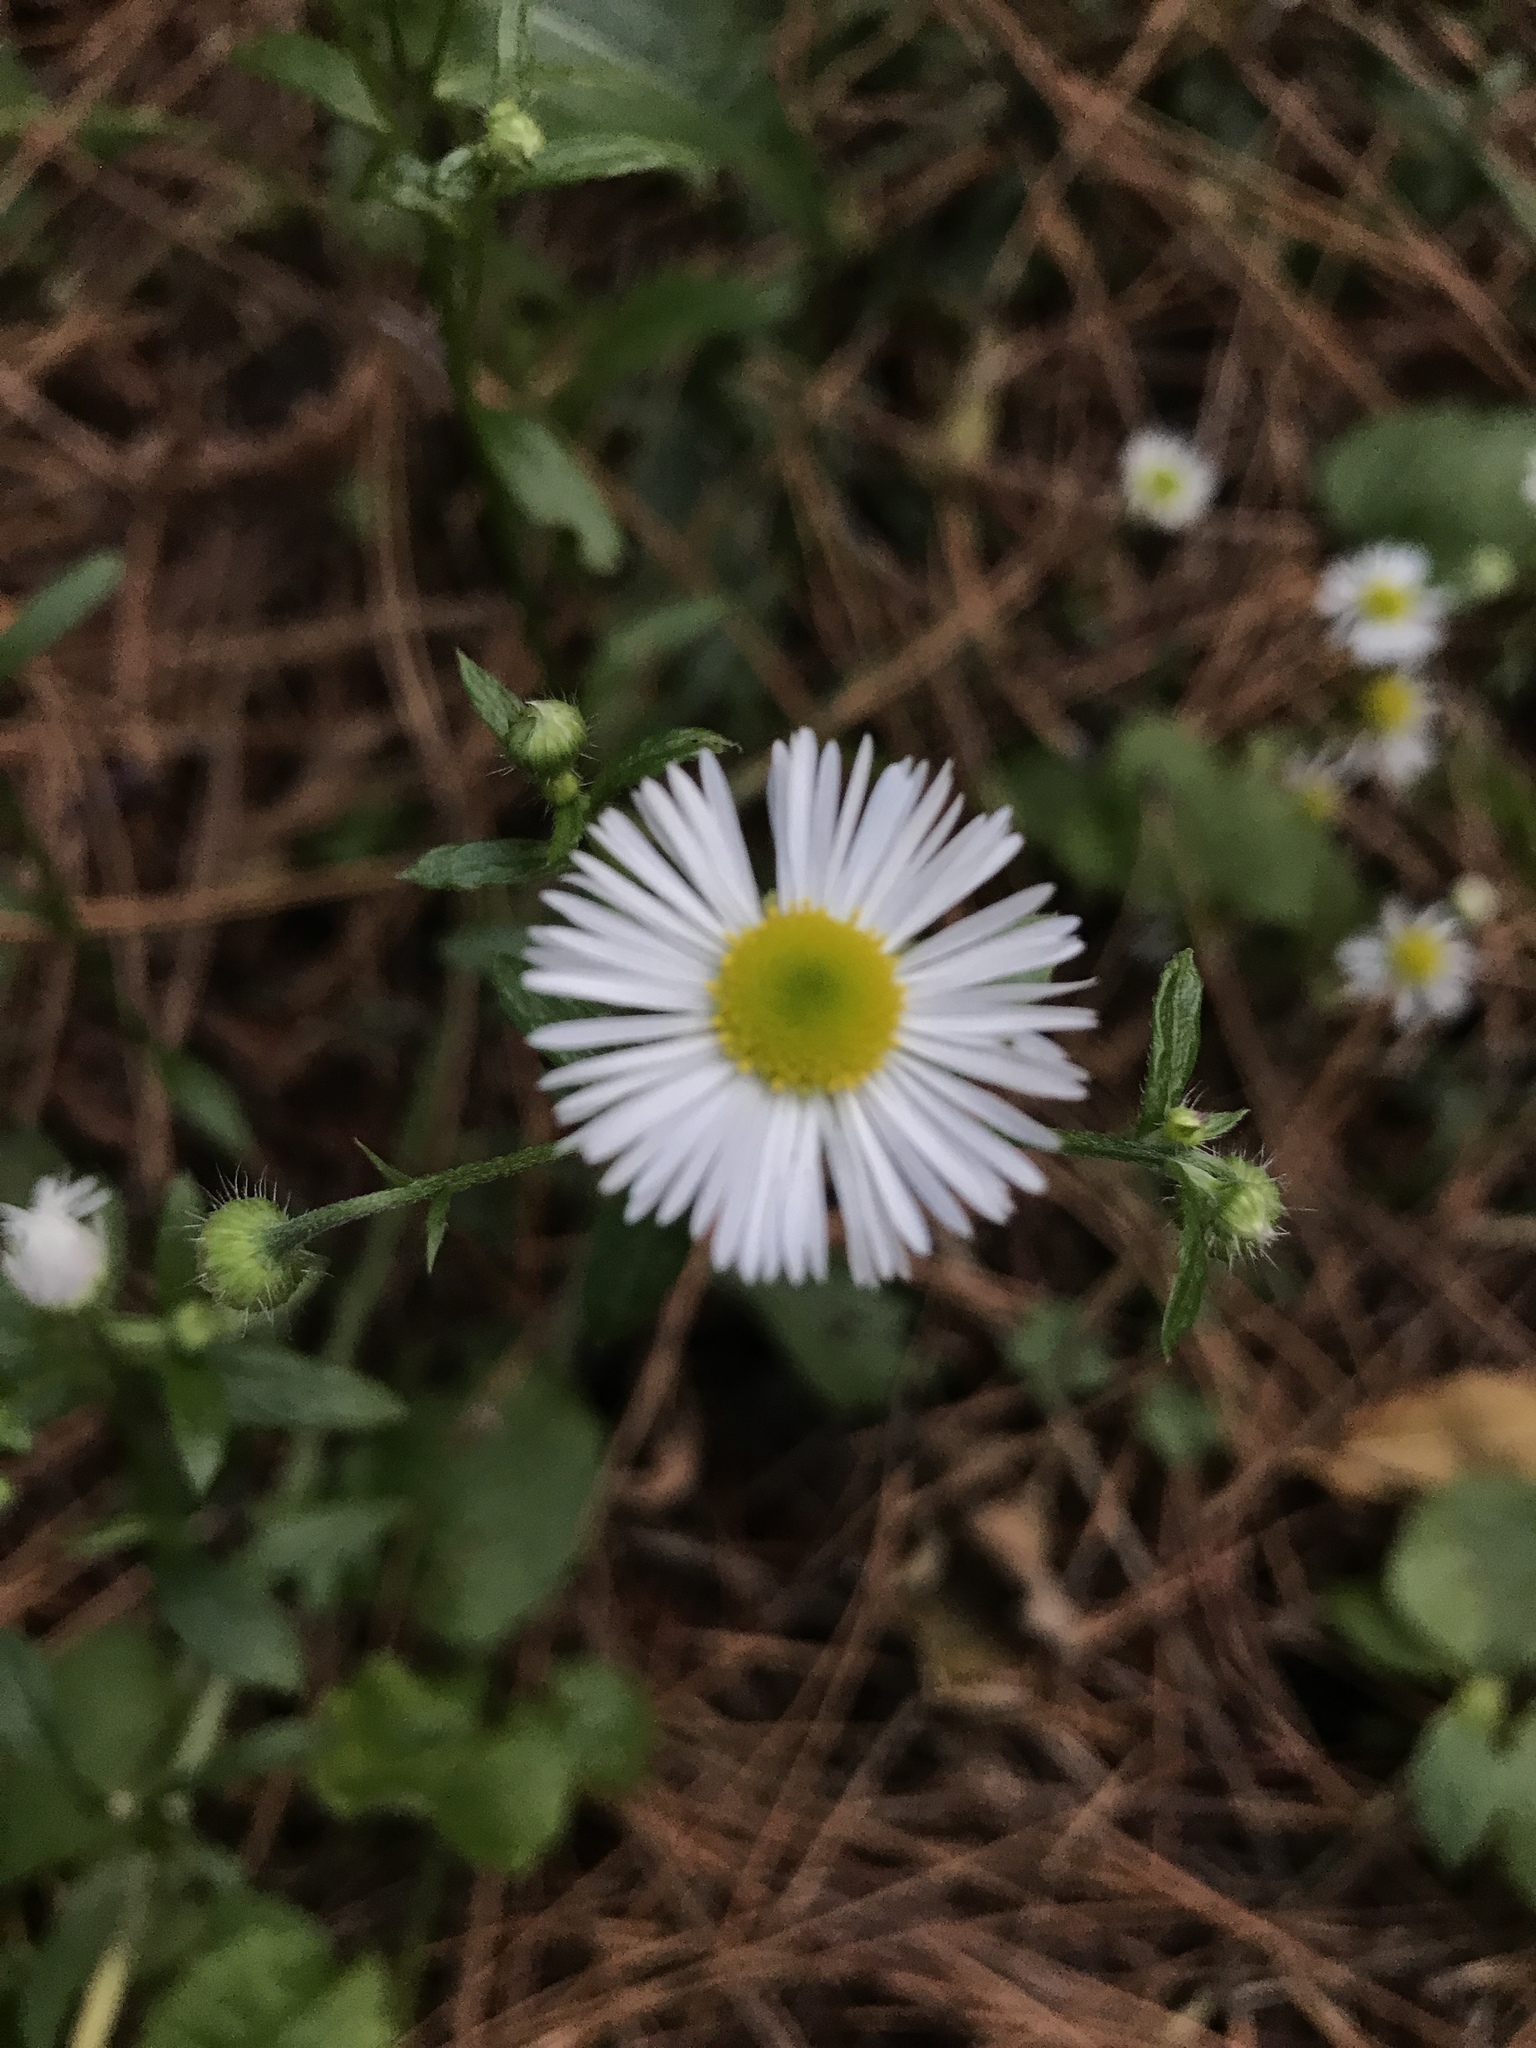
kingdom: Plantae
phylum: Tracheophyta
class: Magnoliopsida
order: Asterales
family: Asteraceae
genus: Erigeron
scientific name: Erigeron strigosus
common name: Common eastern fleabane
